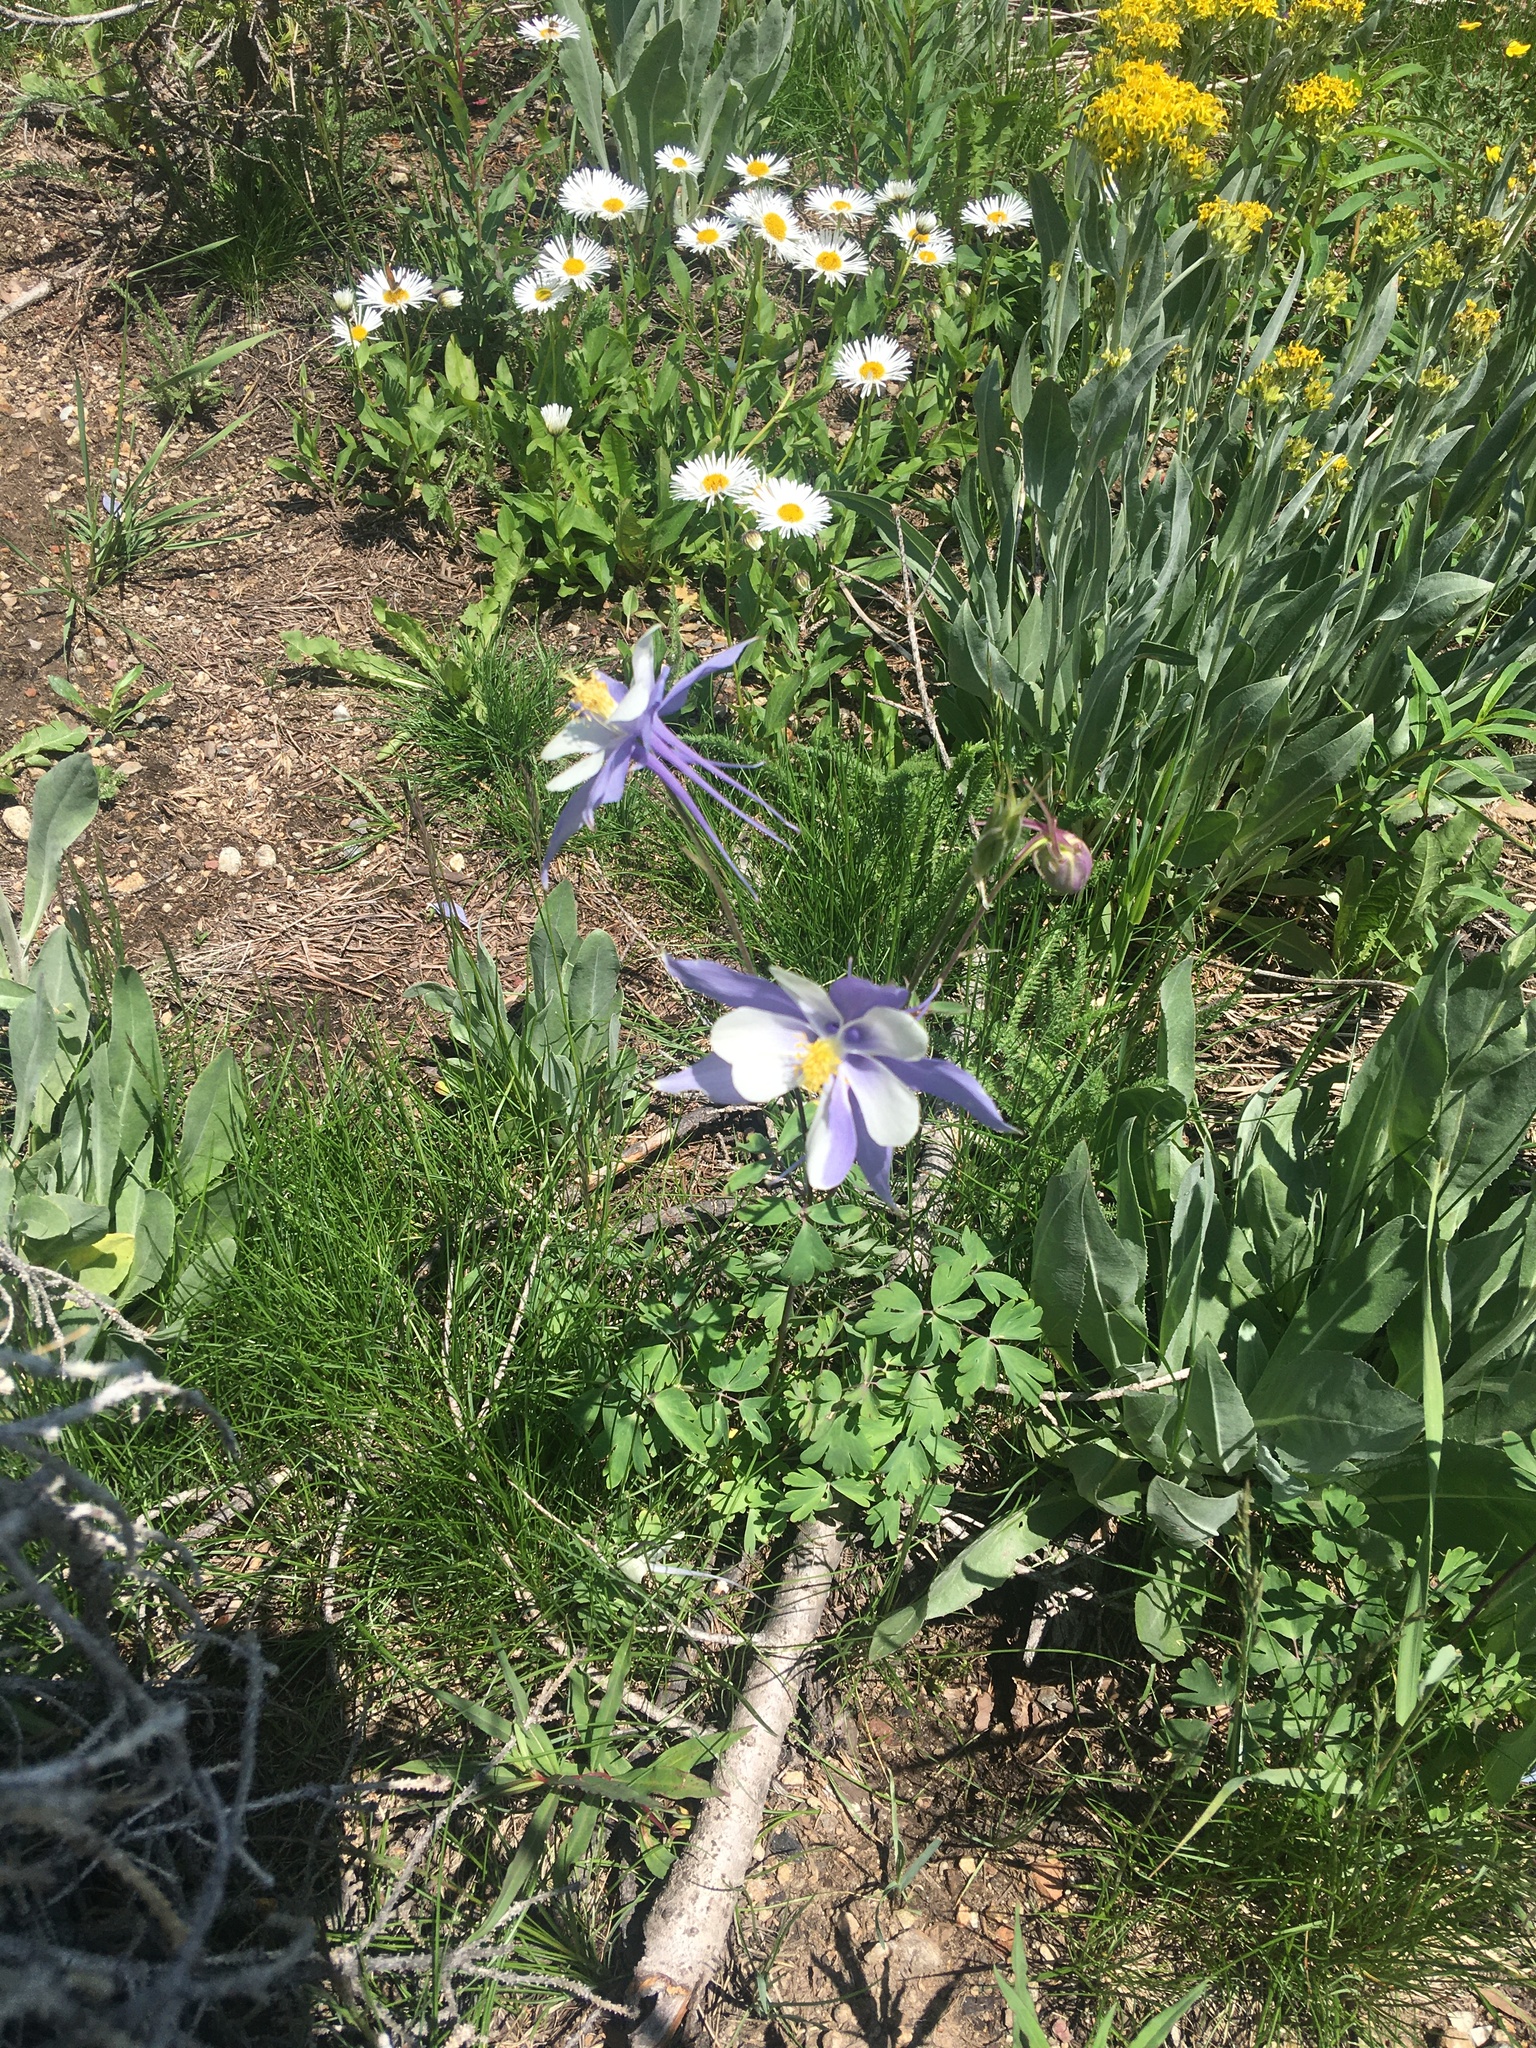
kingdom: Plantae
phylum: Tracheophyta
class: Magnoliopsida
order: Ranunculales
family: Ranunculaceae
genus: Aquilegia
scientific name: Aquilegia coerulea
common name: Rocky mountain columbine
